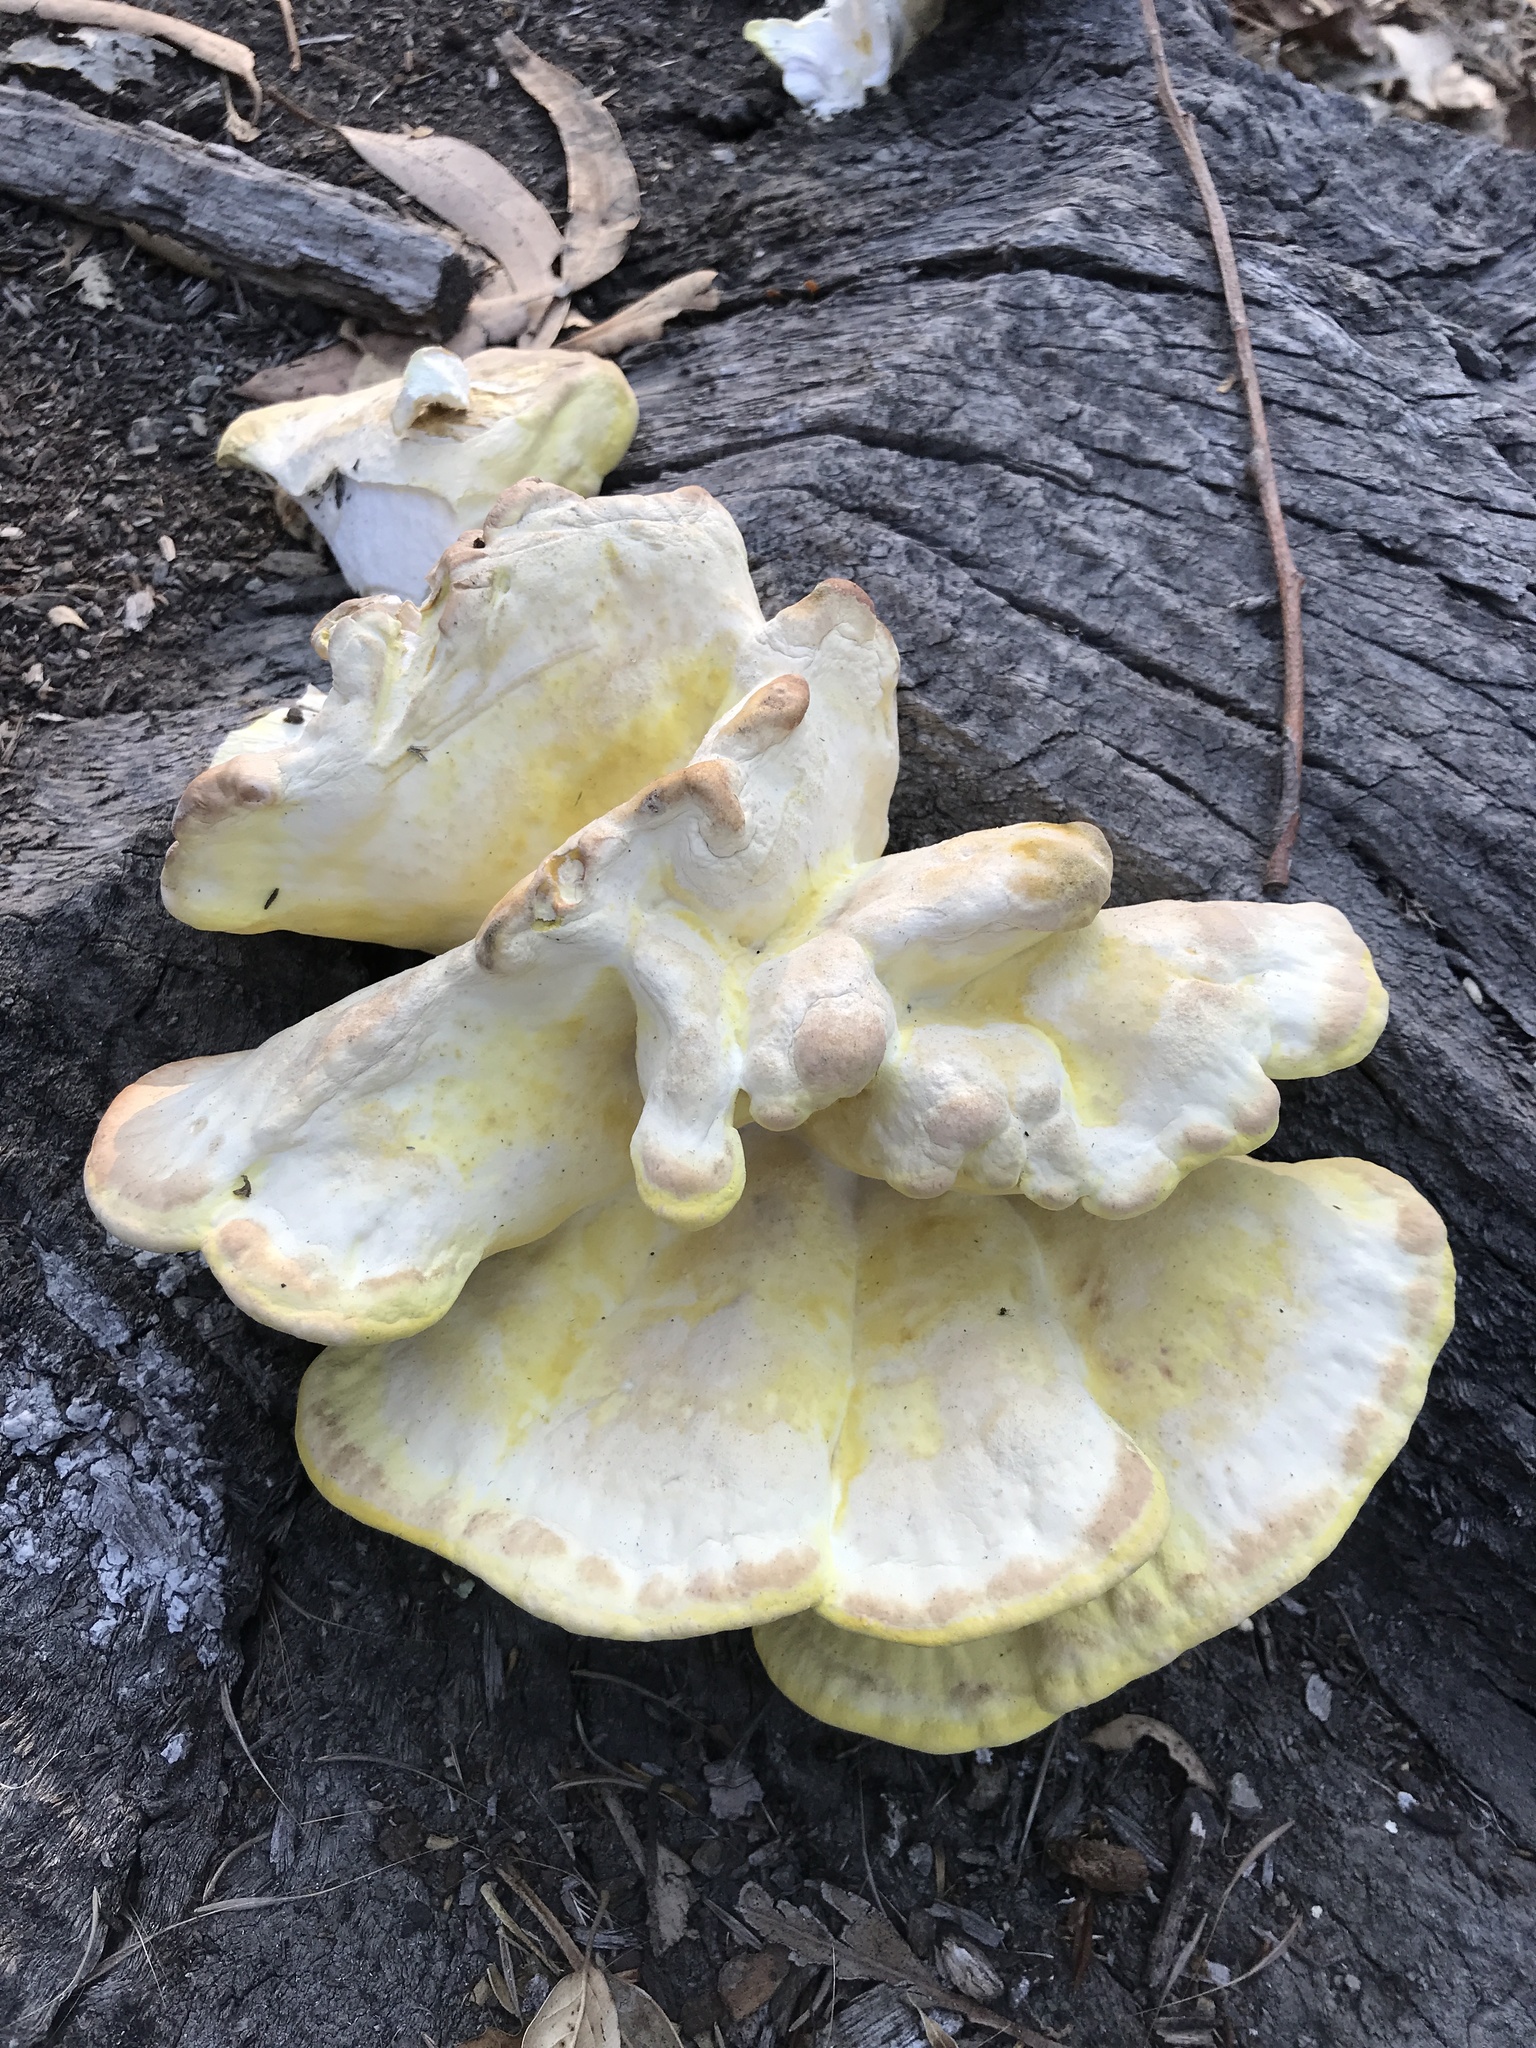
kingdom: Fungi
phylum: Basidiomycota
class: Agaricomycetes
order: Polyporales
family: Laetiporaceae
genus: Laetiporus
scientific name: Laetiporus gilbertsonii
